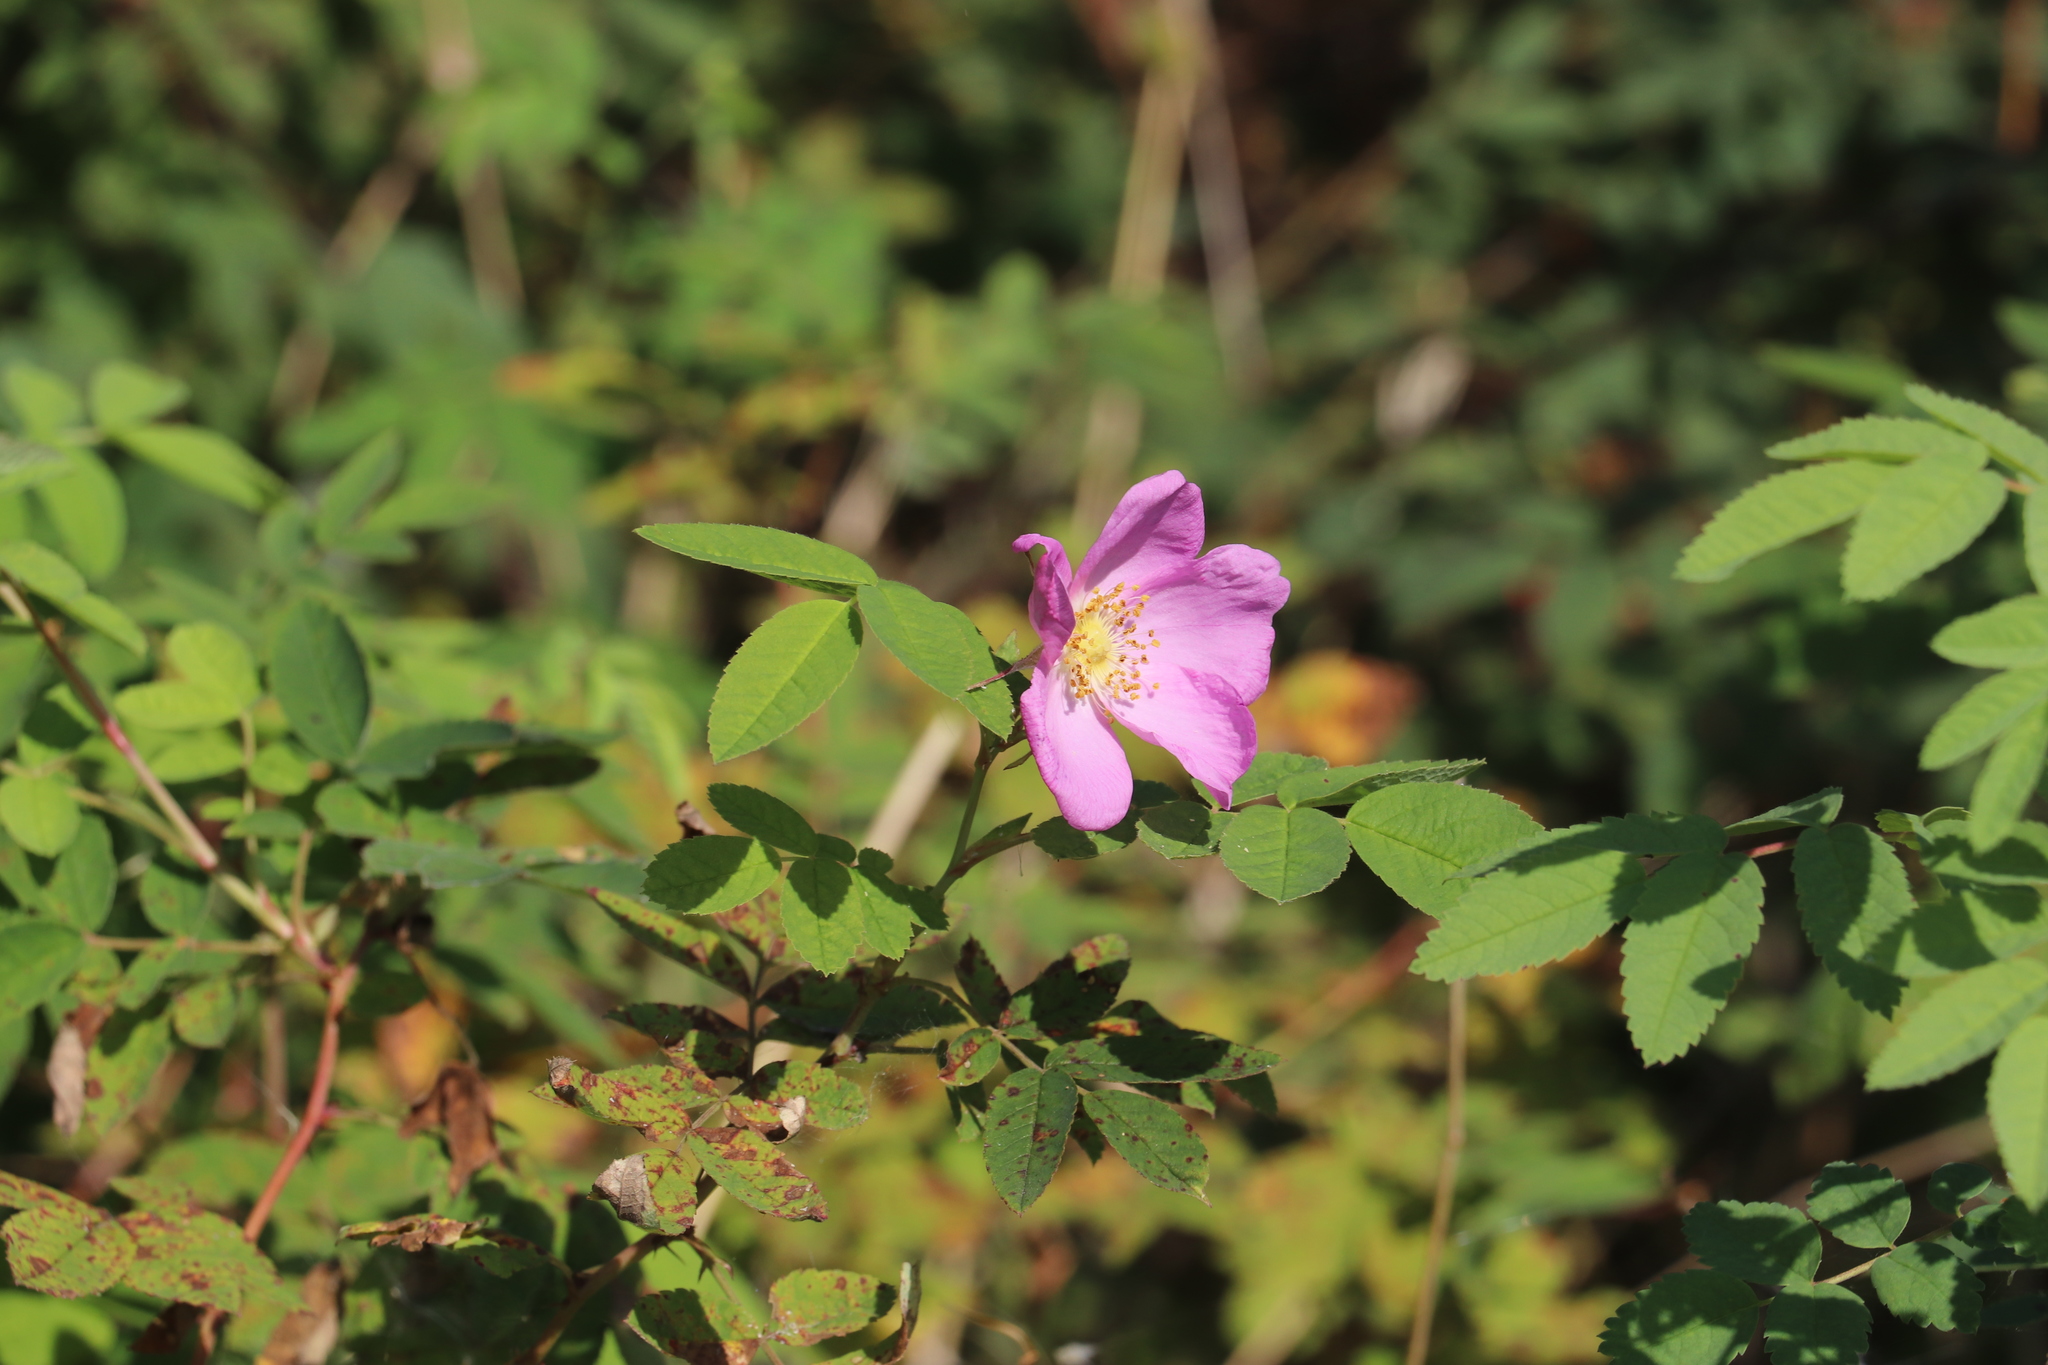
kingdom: Plantae
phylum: Tracheophyta
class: Magnoliopsida
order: Rosales
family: Rosaceae
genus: Rosa
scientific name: Rosa acicularis
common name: Prickly rose
